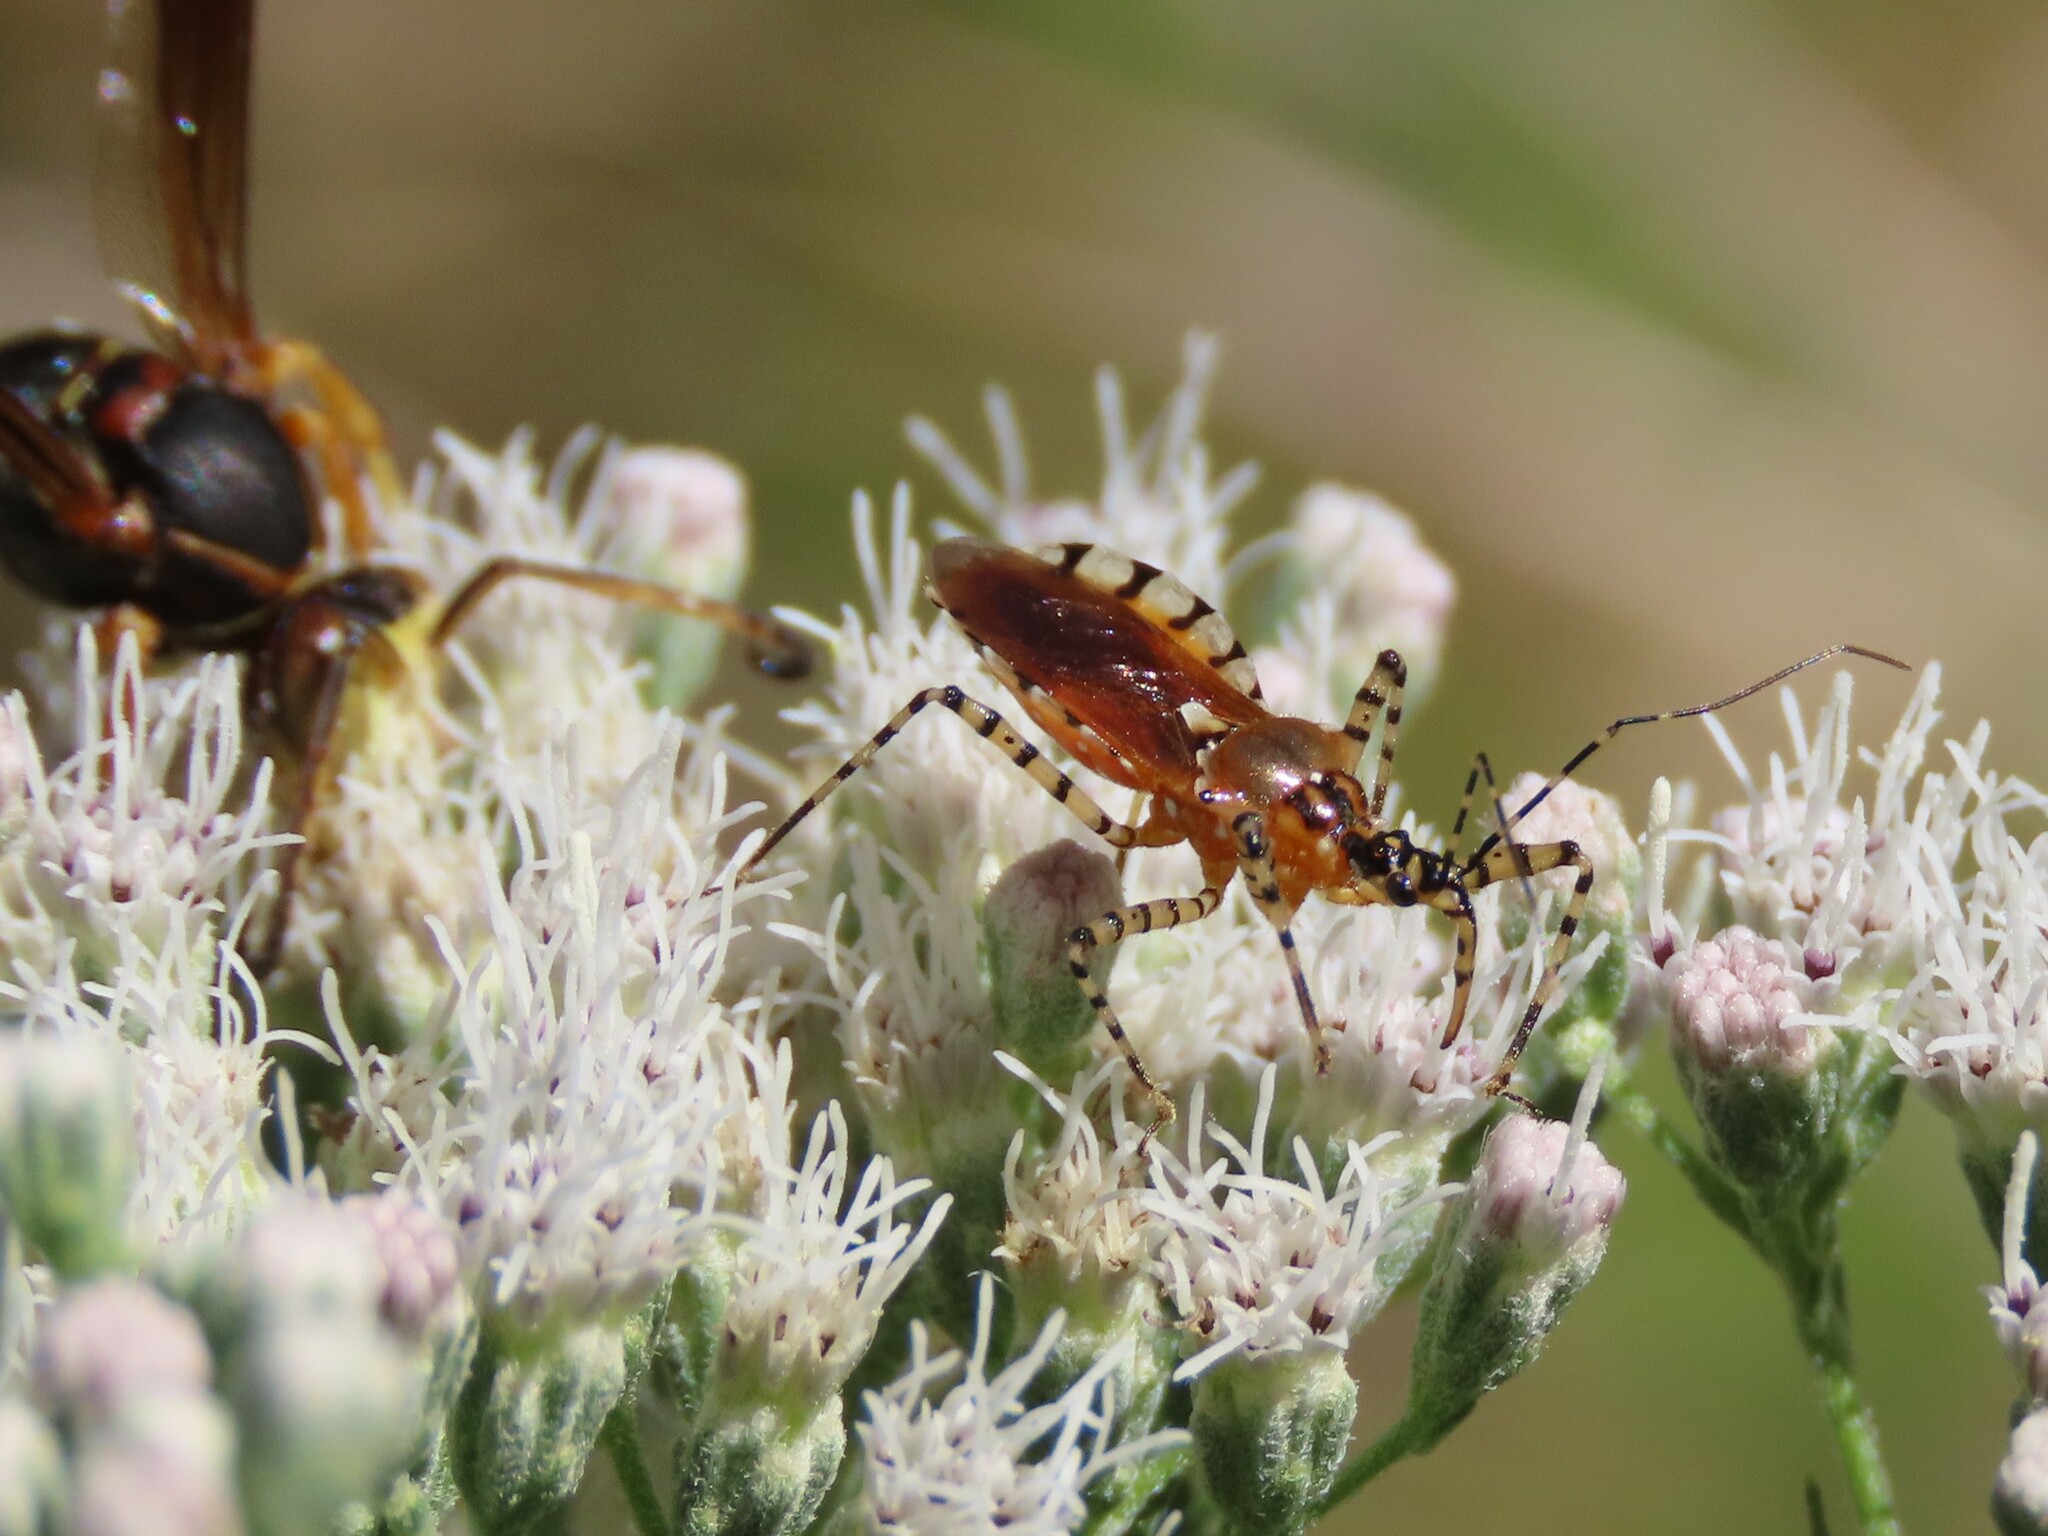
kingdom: Animalia
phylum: Arthropoda
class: Insecta
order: Hemiptera
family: Reduviidae
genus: Pselliopus
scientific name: Pselliopus cinctus
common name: Ringed assassin bug
